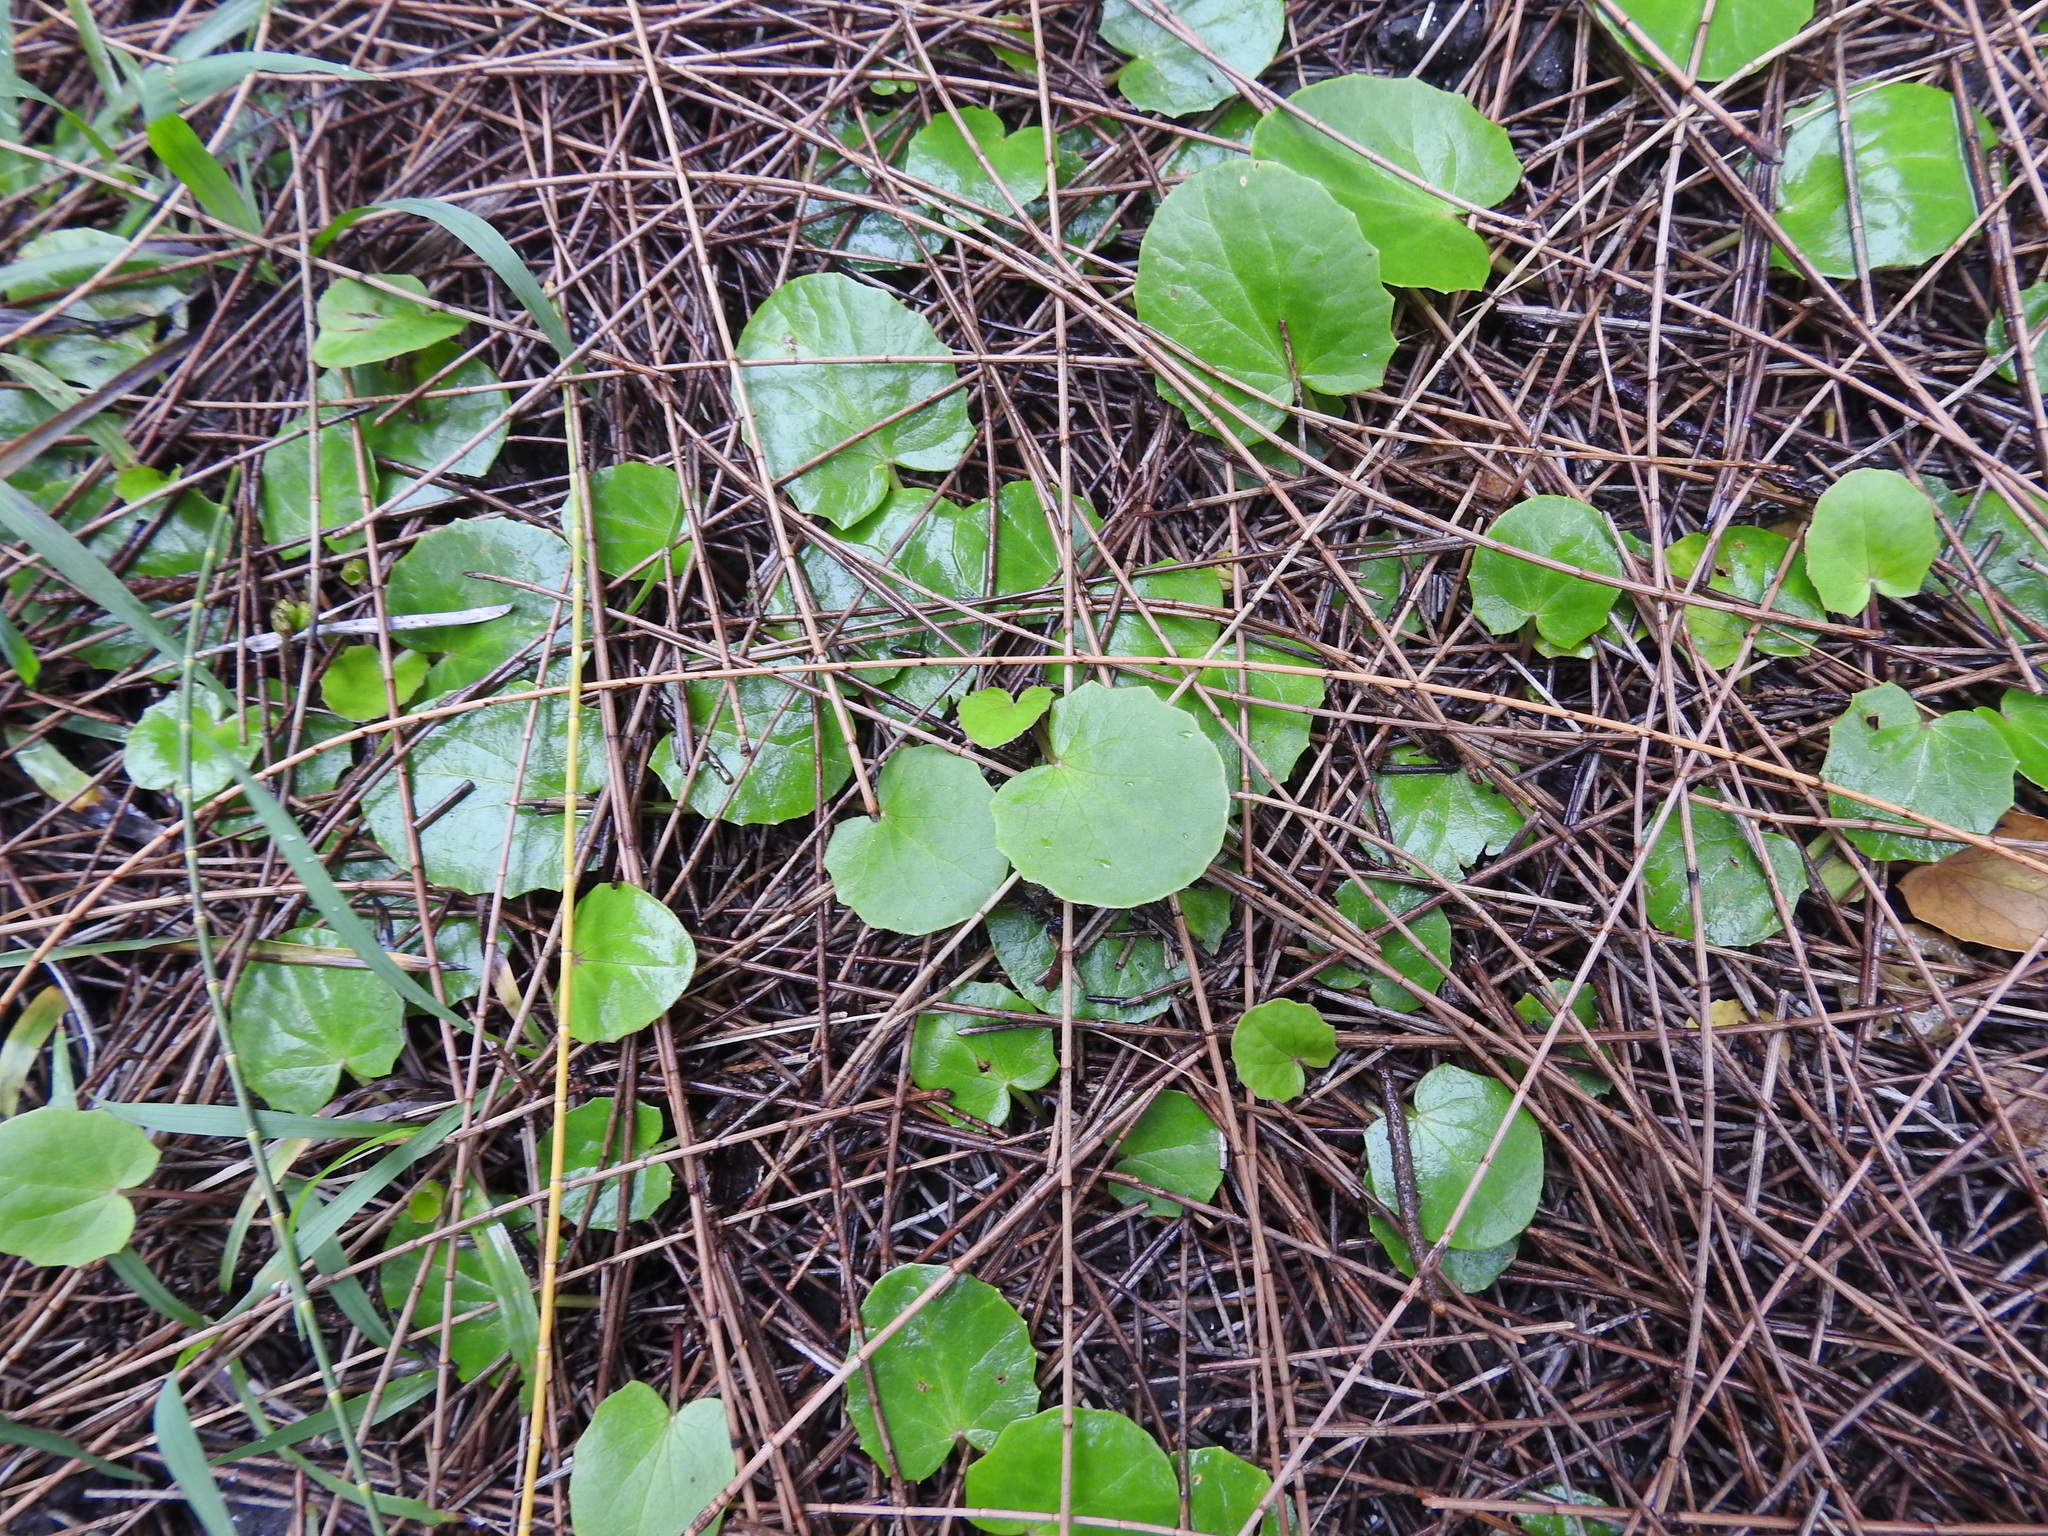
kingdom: Plantae
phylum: Tracheophyta
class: Magnoliopsida
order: Apiales
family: Apiaceae
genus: Centella
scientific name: Centella erecta
